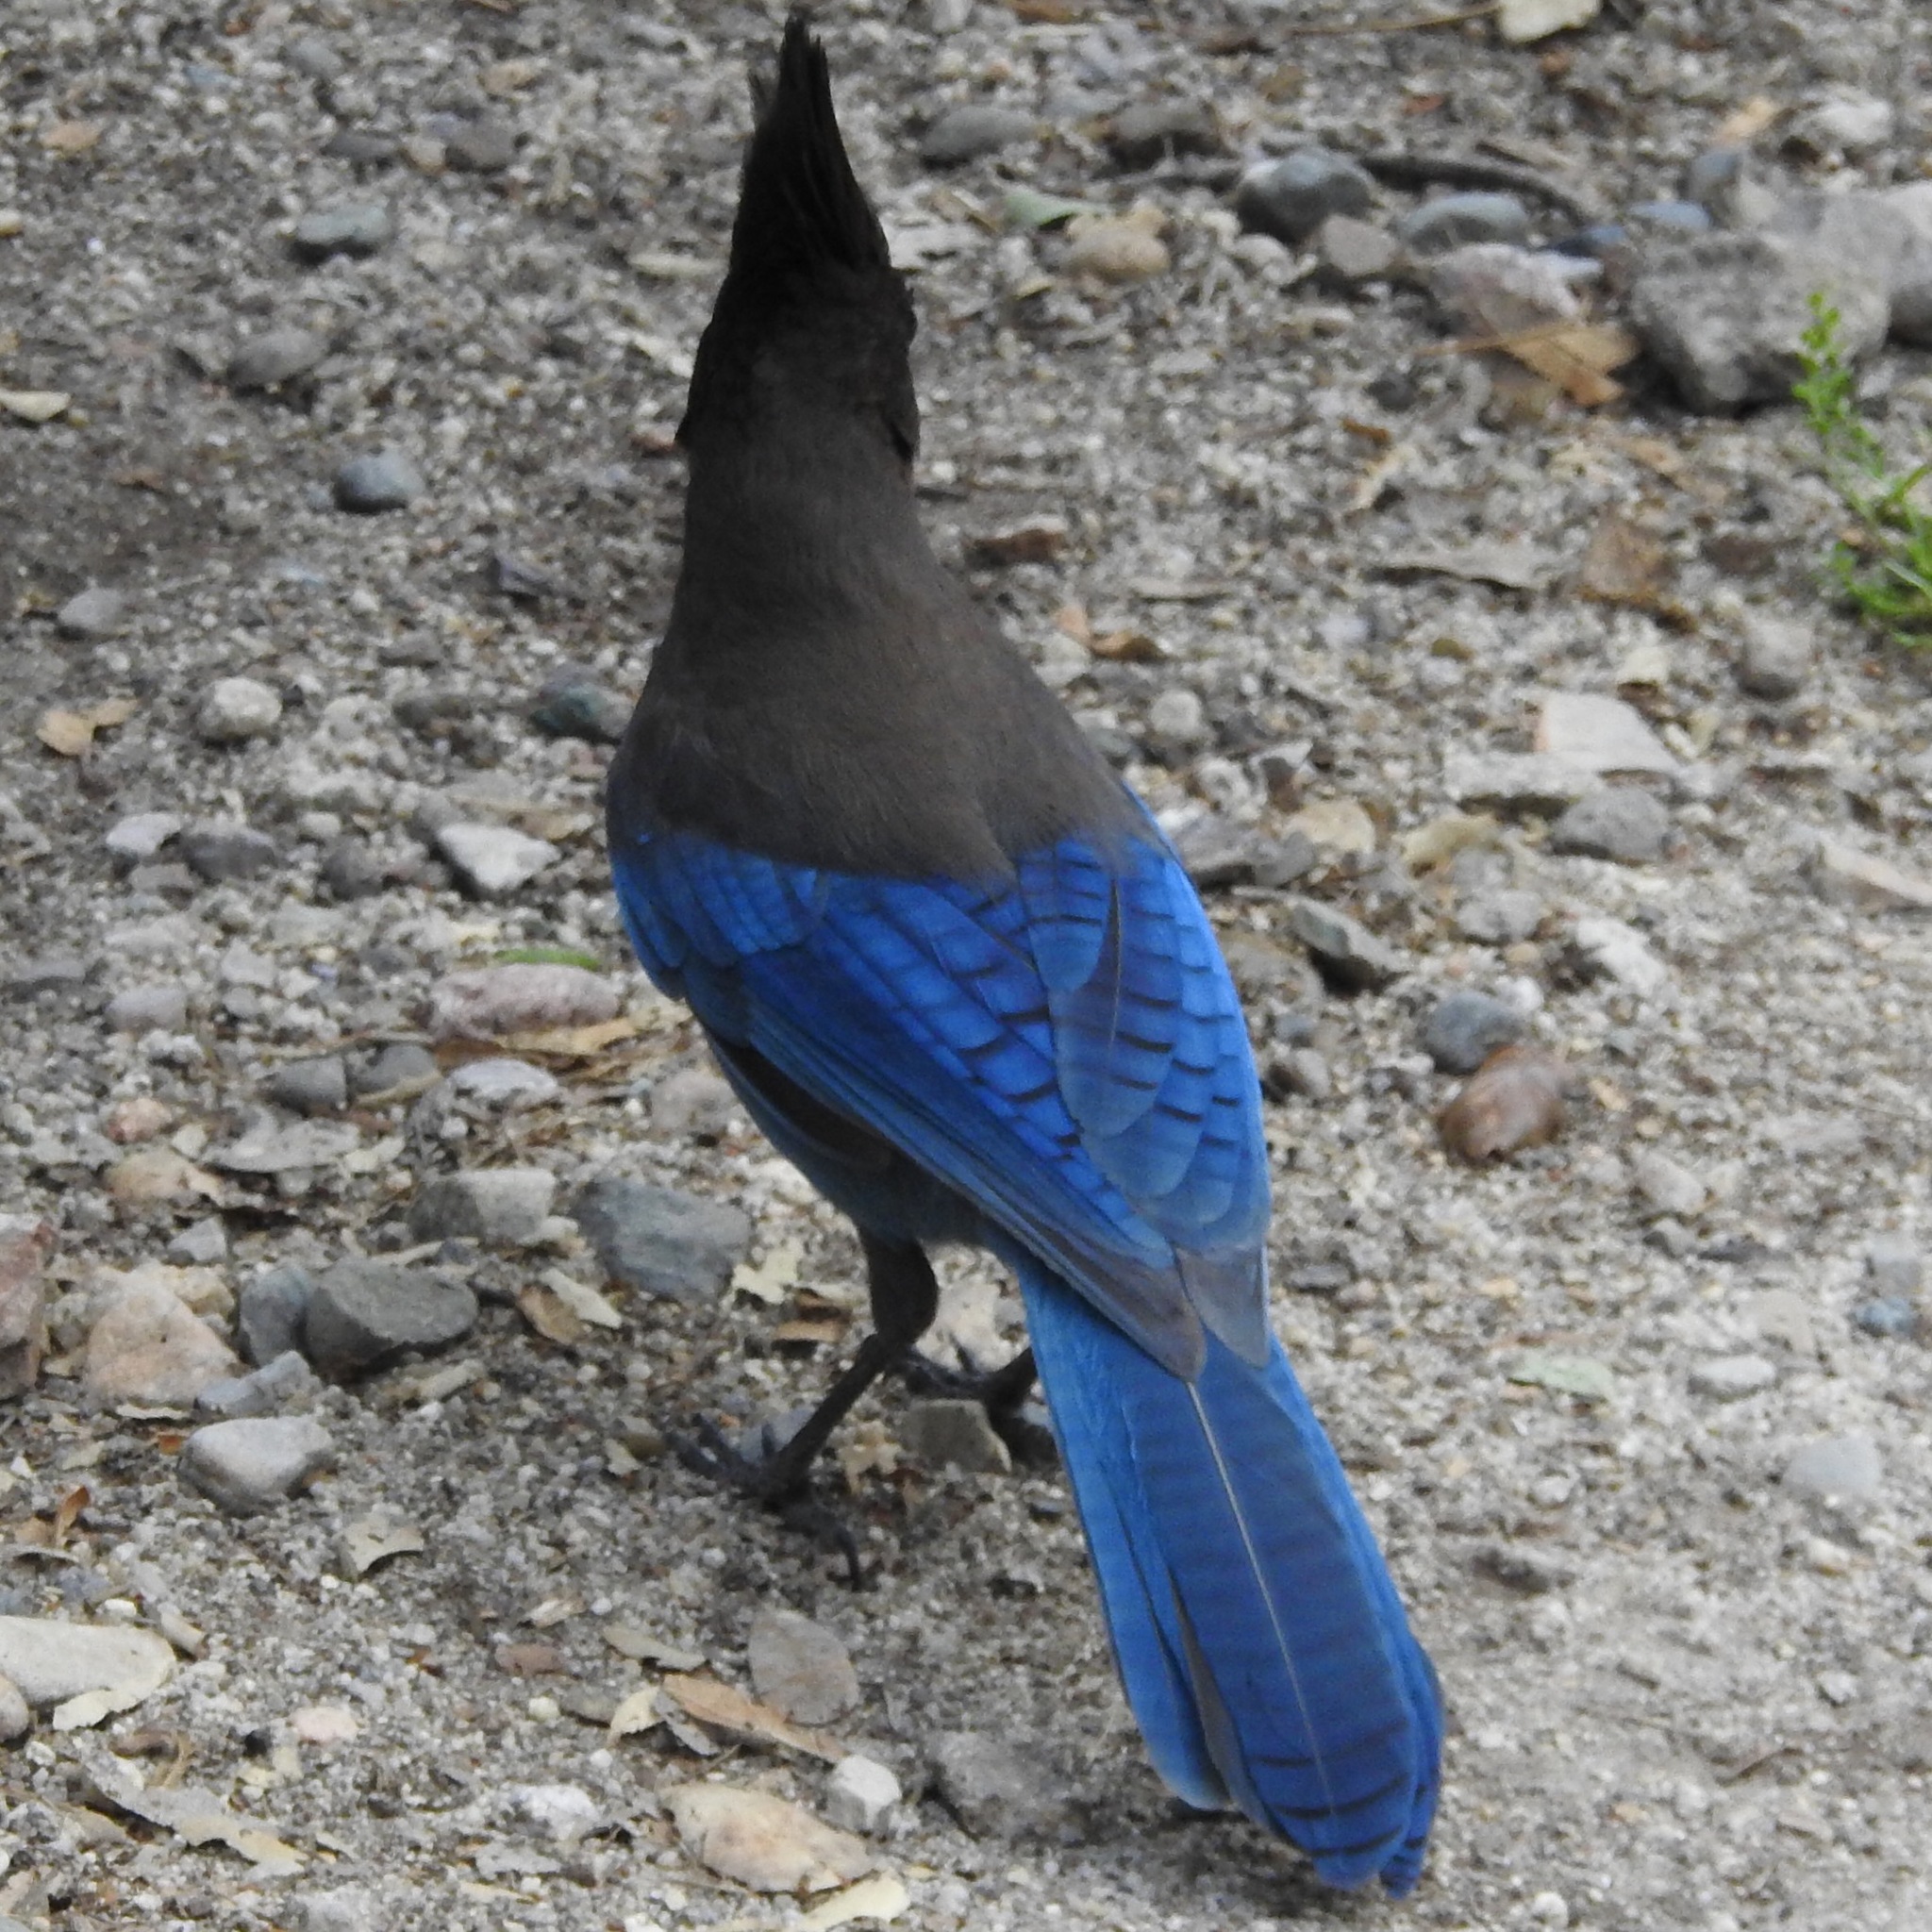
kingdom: Animalia
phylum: Chordata
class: Aves
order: Passeriformes
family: Corvidae
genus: Cyanocitta
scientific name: Cyanocitta stelleri
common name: Steller's jay
